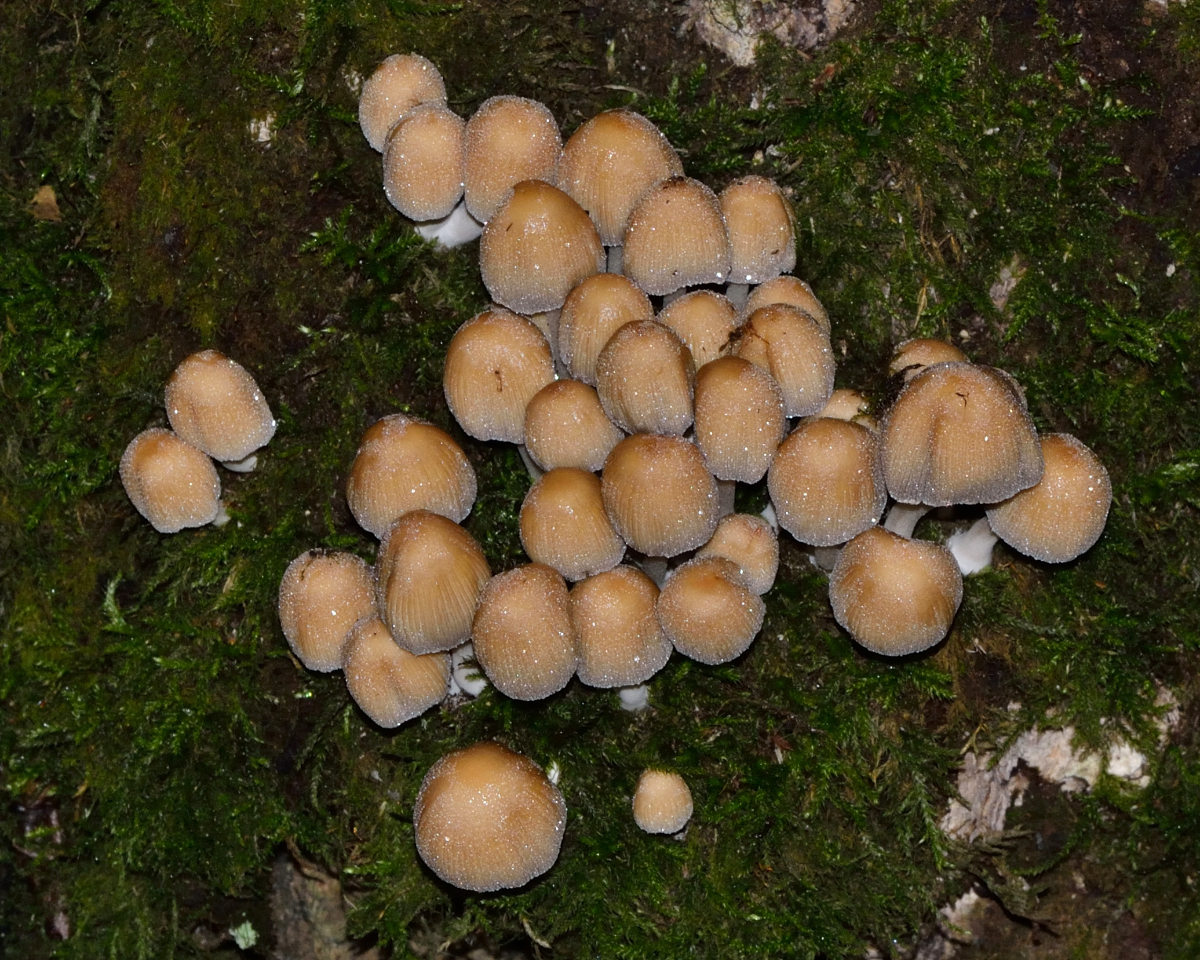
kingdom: Fungi
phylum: Basidiomycota
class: Agaricomycetes
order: Agaricales
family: Psathyrellaceae
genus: Coprinellus
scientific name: Coprinellus micaceus
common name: Glistening ink-cap
